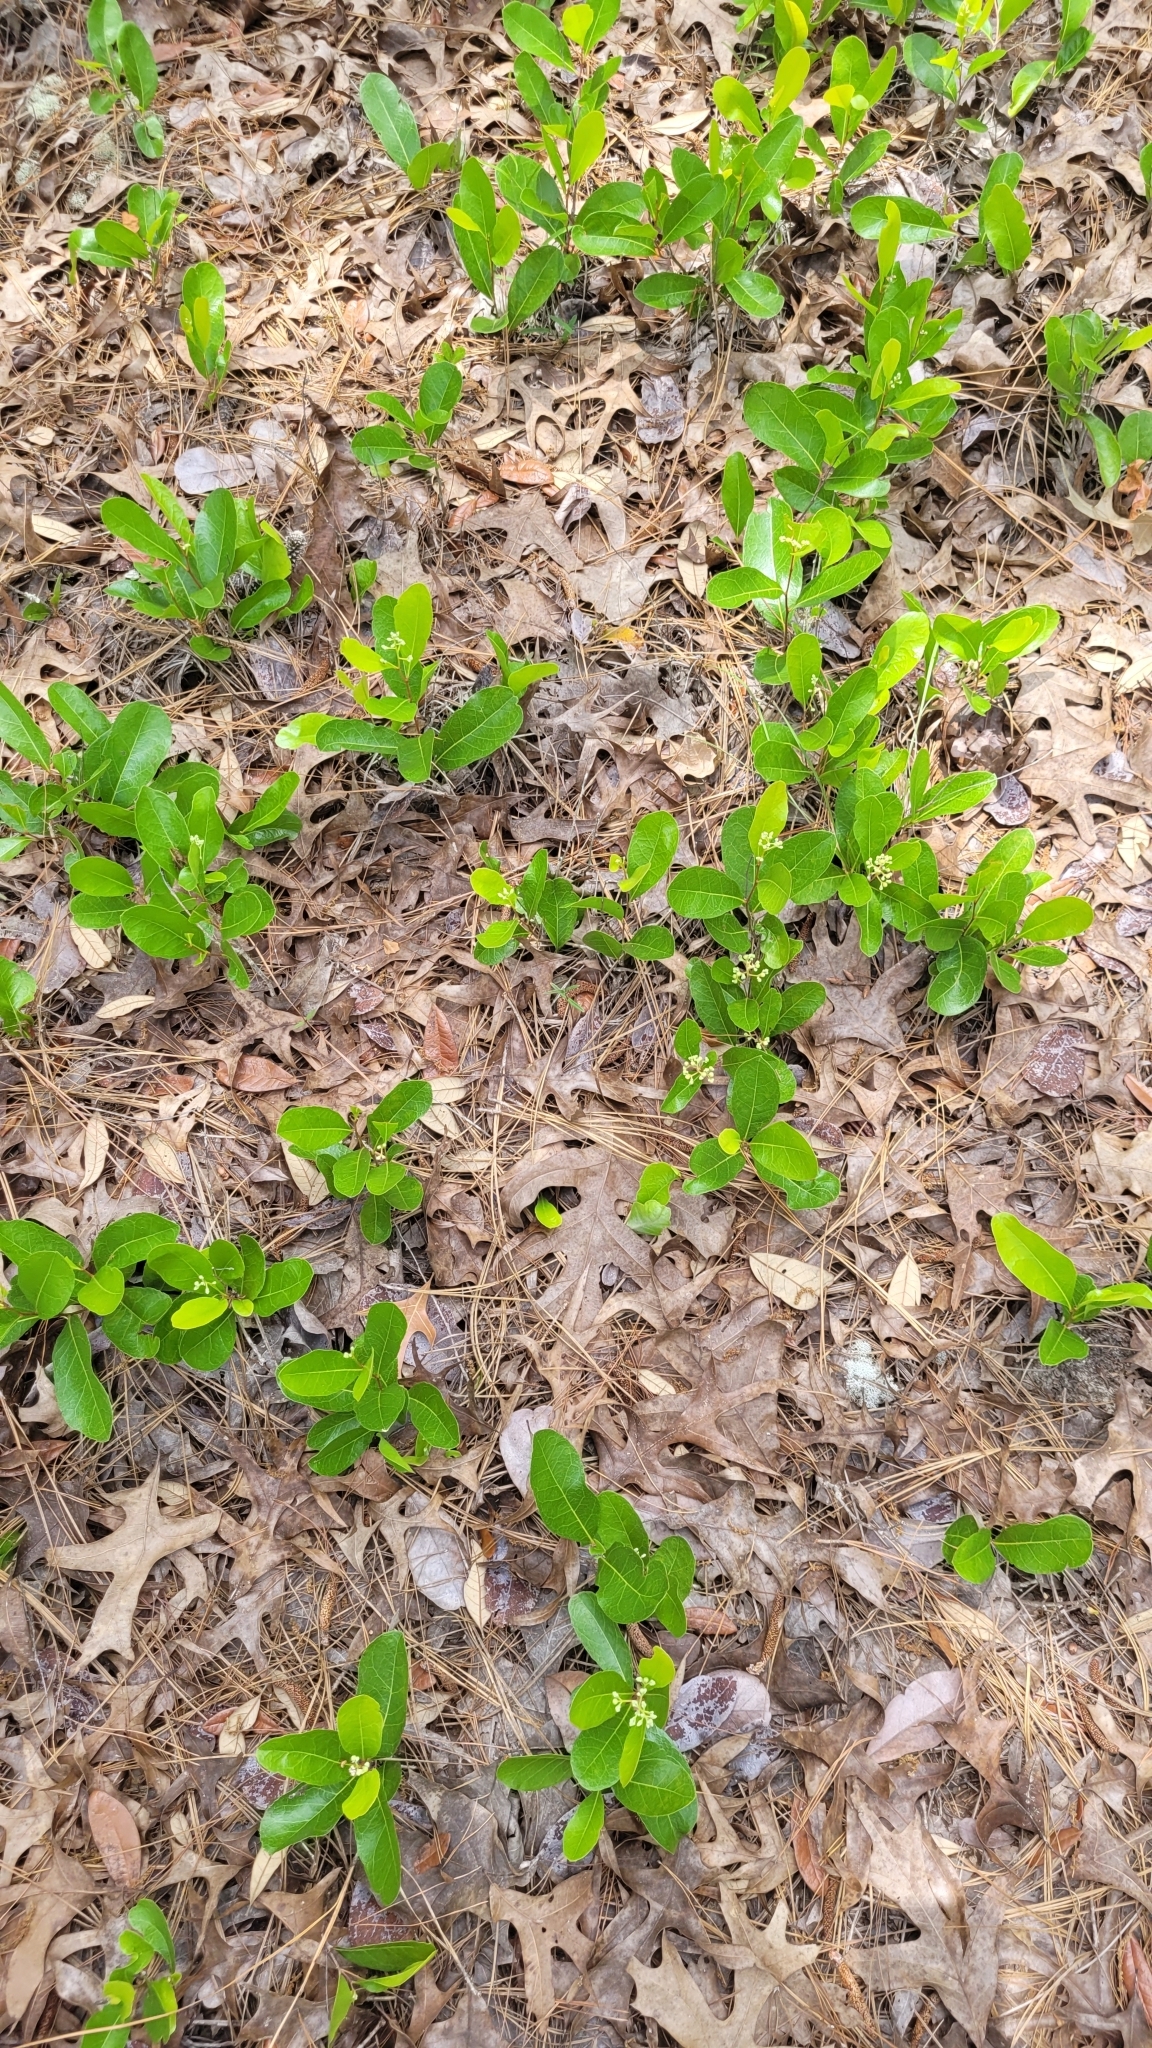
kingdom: Plantae
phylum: Tracheophyta
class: Magnoliopsida
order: Malpighiales
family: Chrysobalanaceae
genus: Geobalanus
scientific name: Geobalanus oblongifolius
